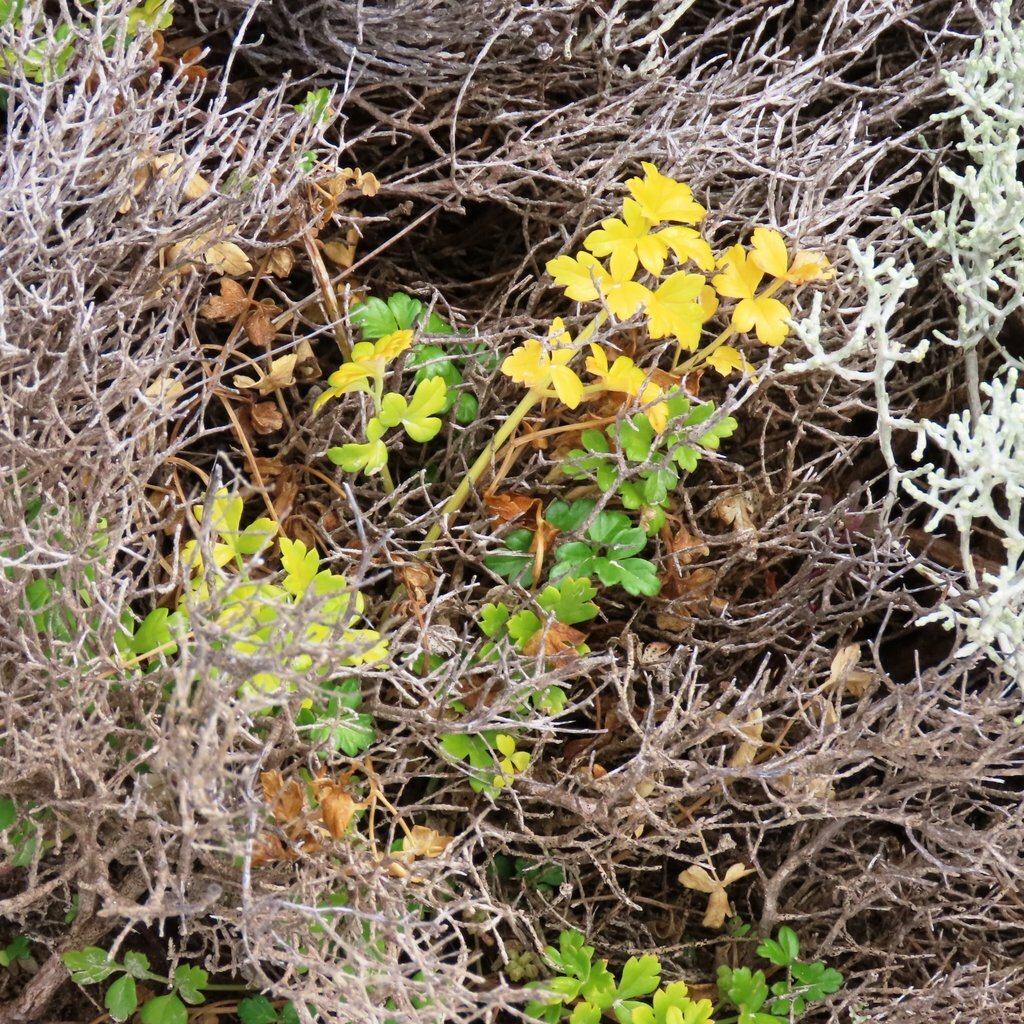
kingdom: Plantae
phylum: Tracheophyta
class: Magnoliopsida
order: Apiales
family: Apiaceae
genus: Apium
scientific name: Apium prostratum
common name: Prostrate marshwort
